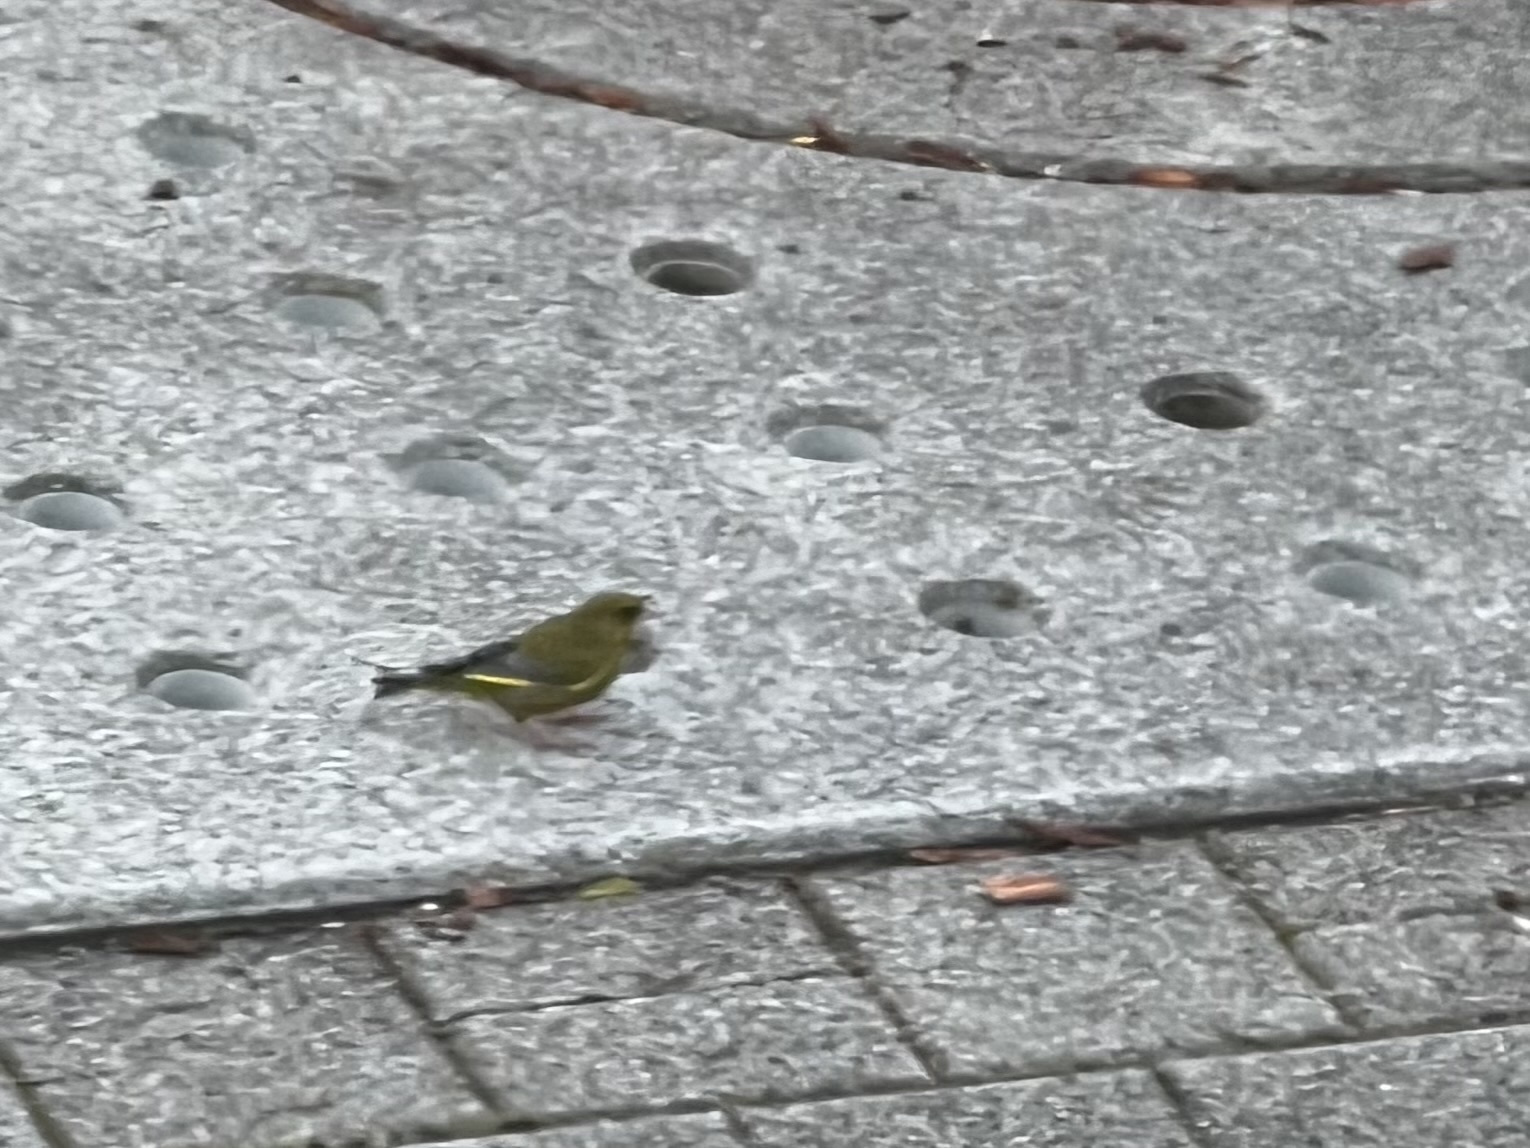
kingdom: Plantae
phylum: Tracheophyta
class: Liliopsida
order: Poales
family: Poaceae
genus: Chloris
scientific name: Chloris chloris
